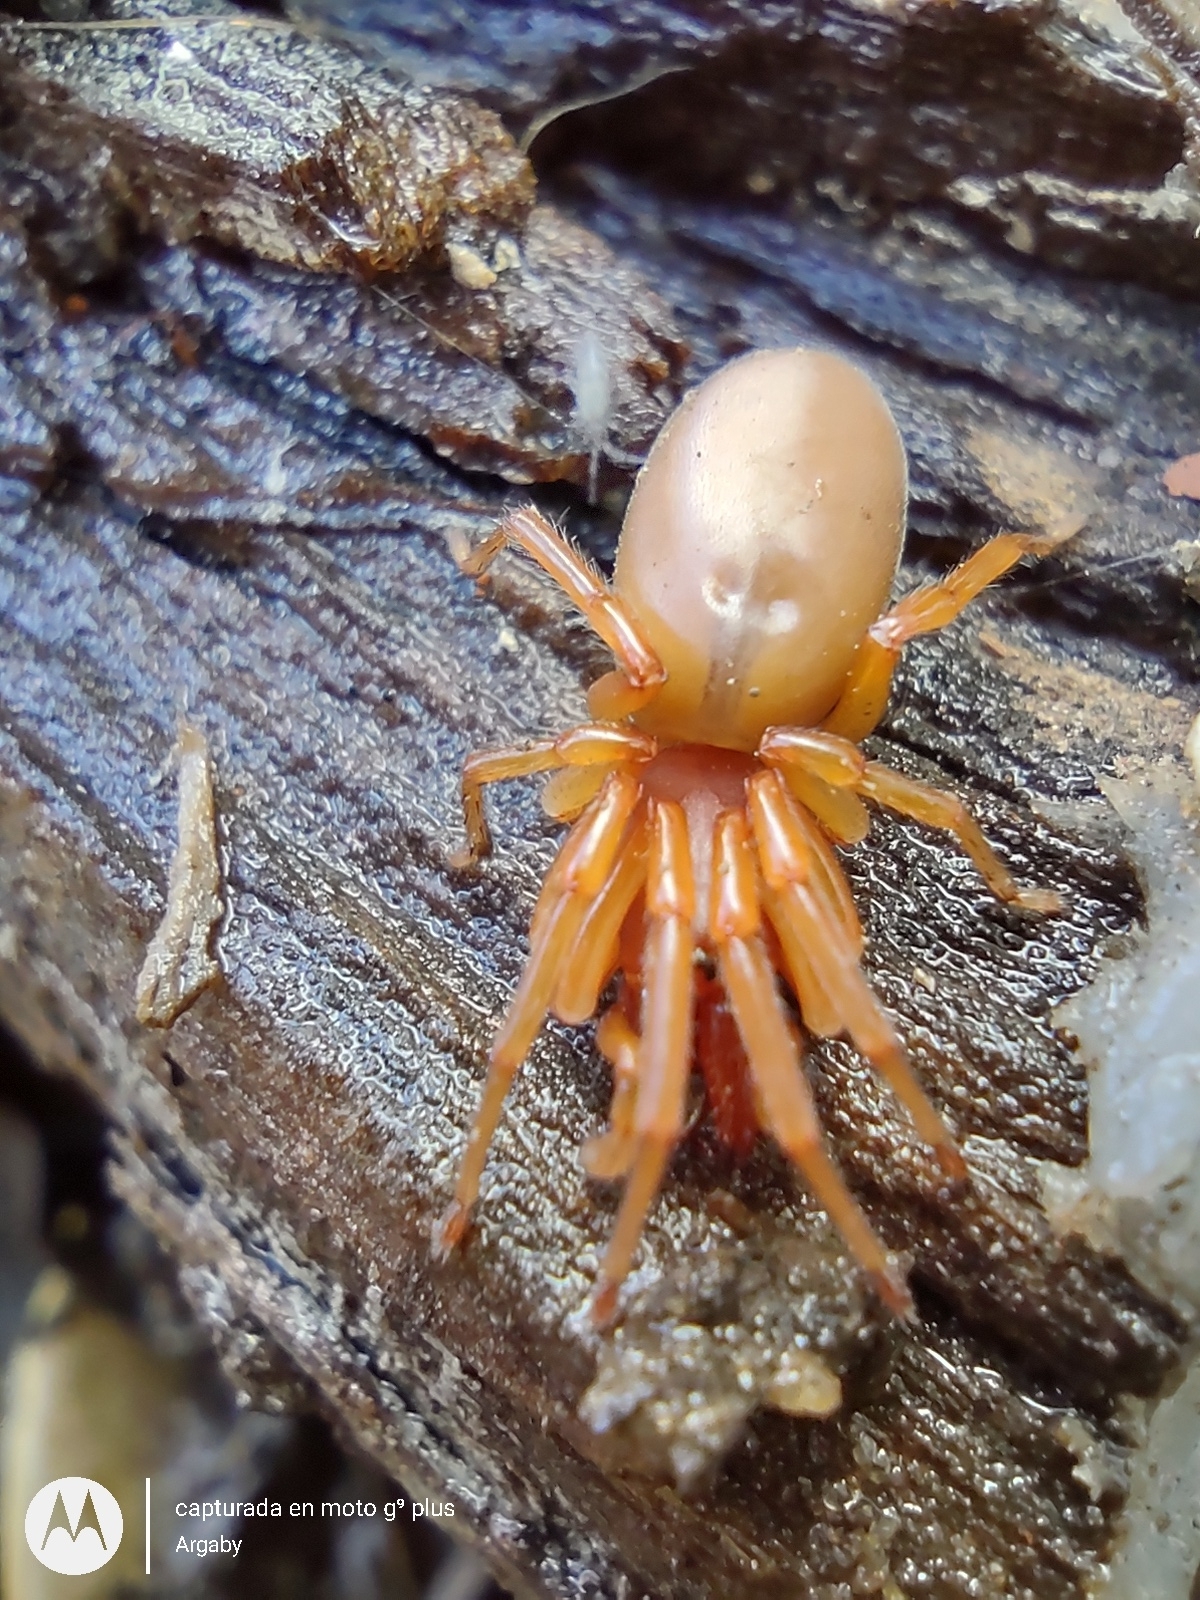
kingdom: Animalia
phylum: Arthropoda
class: Arachnida
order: Araneae
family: Dysderidae
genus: Dysdera
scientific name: Dysdera crocata
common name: Woodlouse spider
